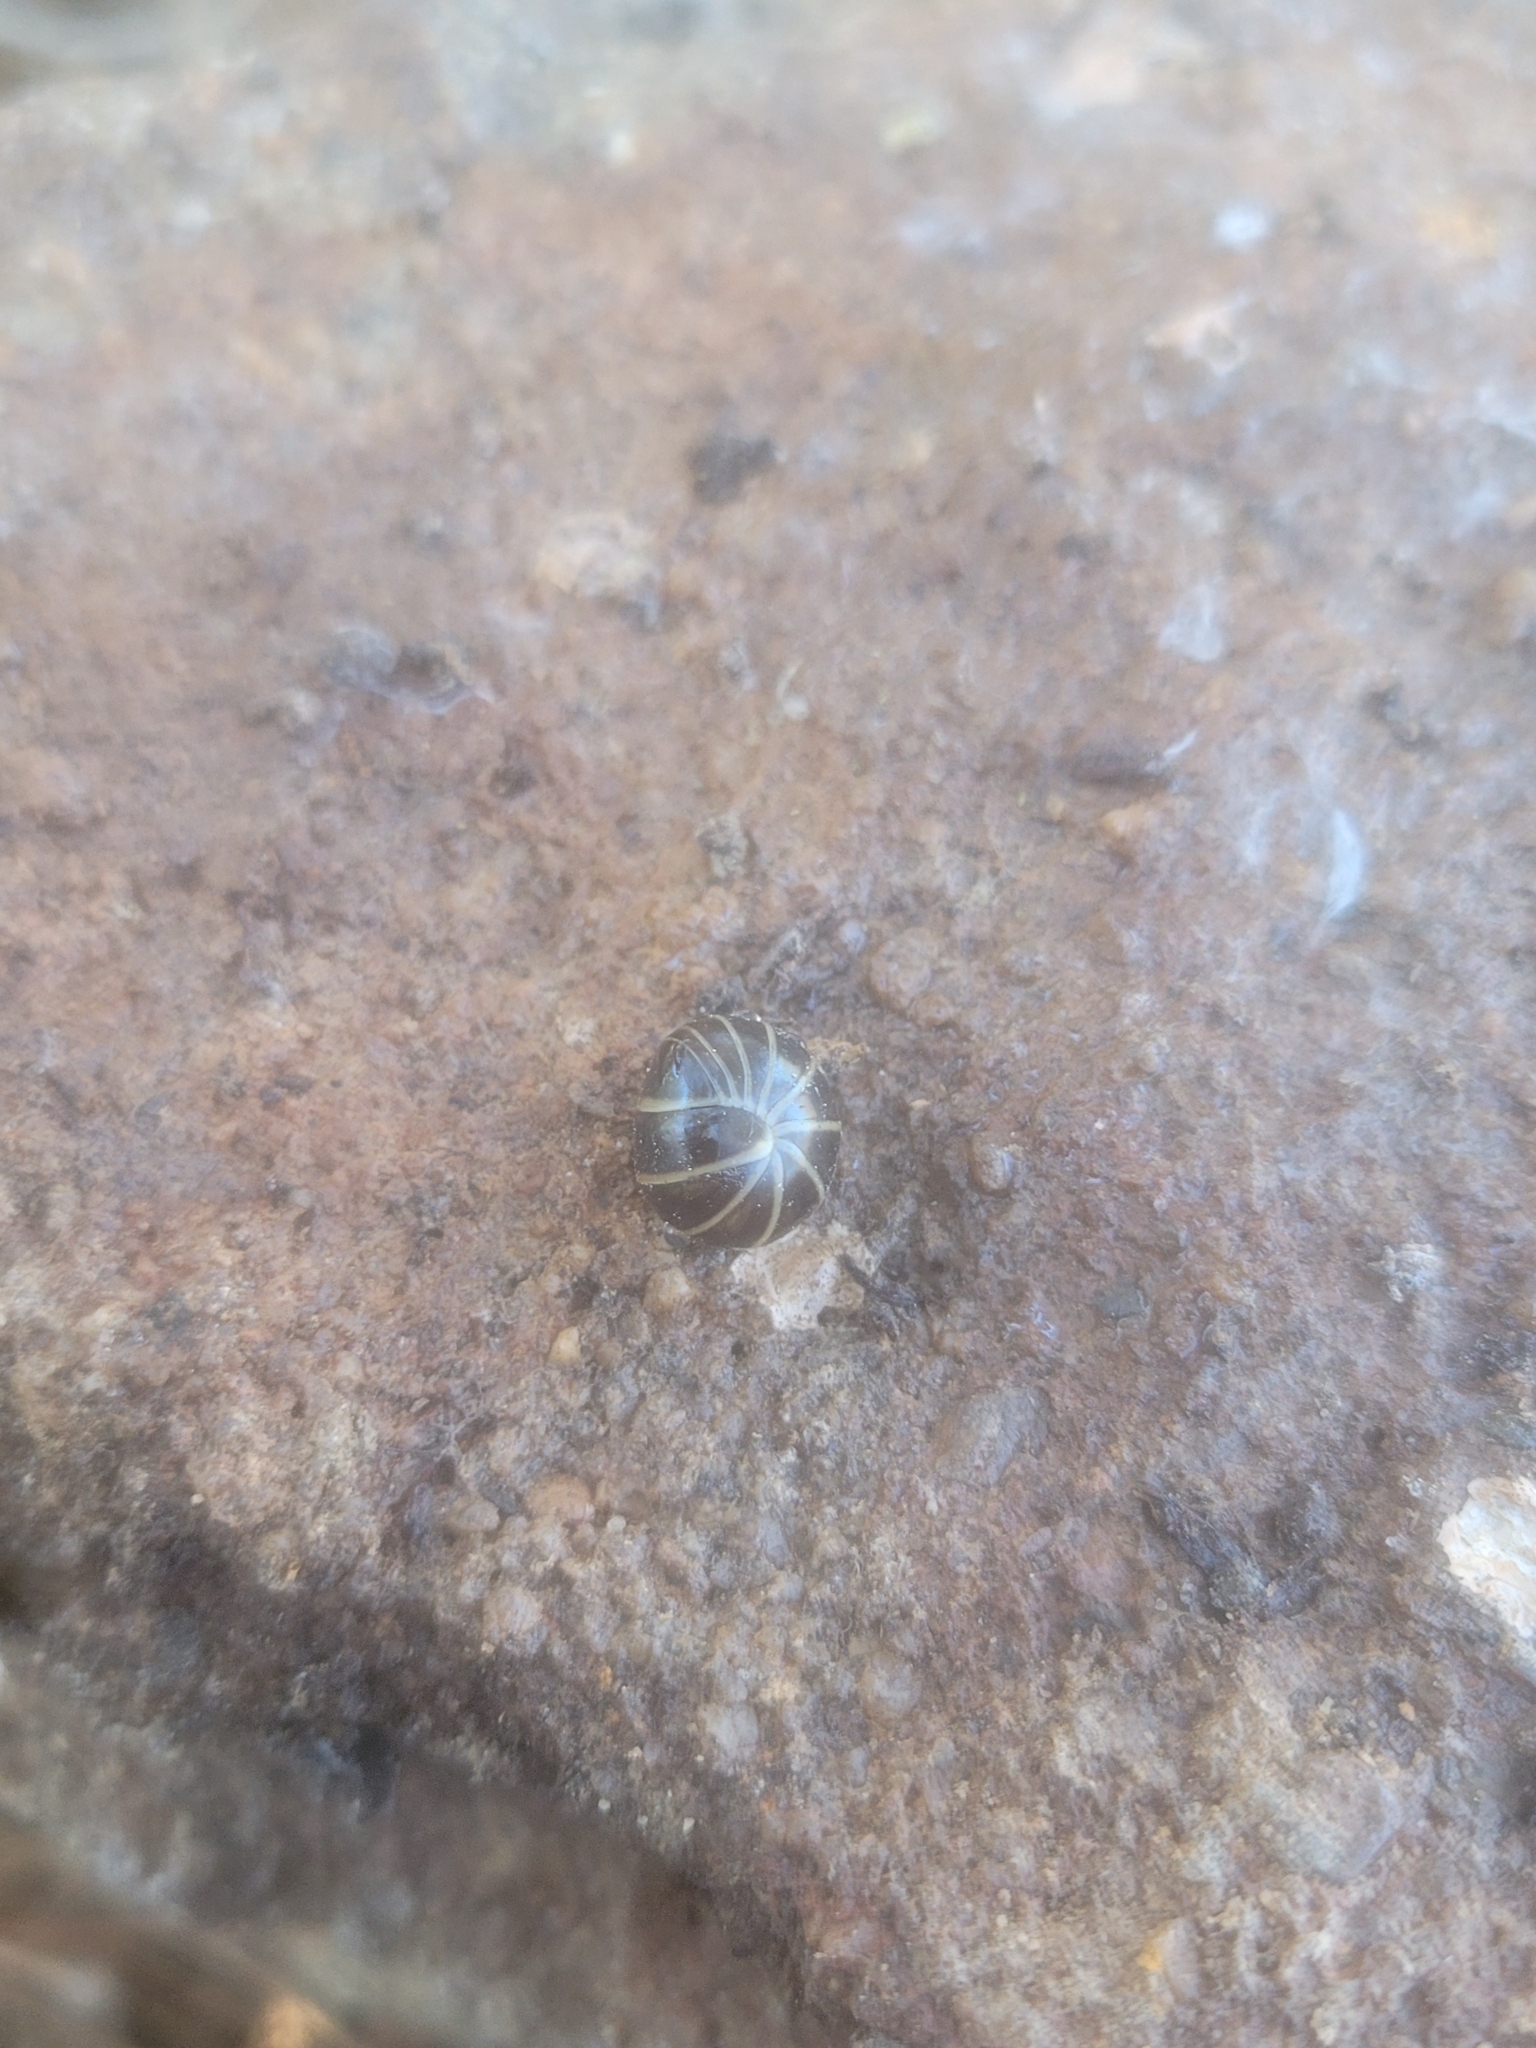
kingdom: Animalia
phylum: Arthropoda
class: Diplopoda
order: Glomerida
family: Glomeridae
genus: Glomeris
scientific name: Glomeris marginata
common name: Bordered pill millipede
